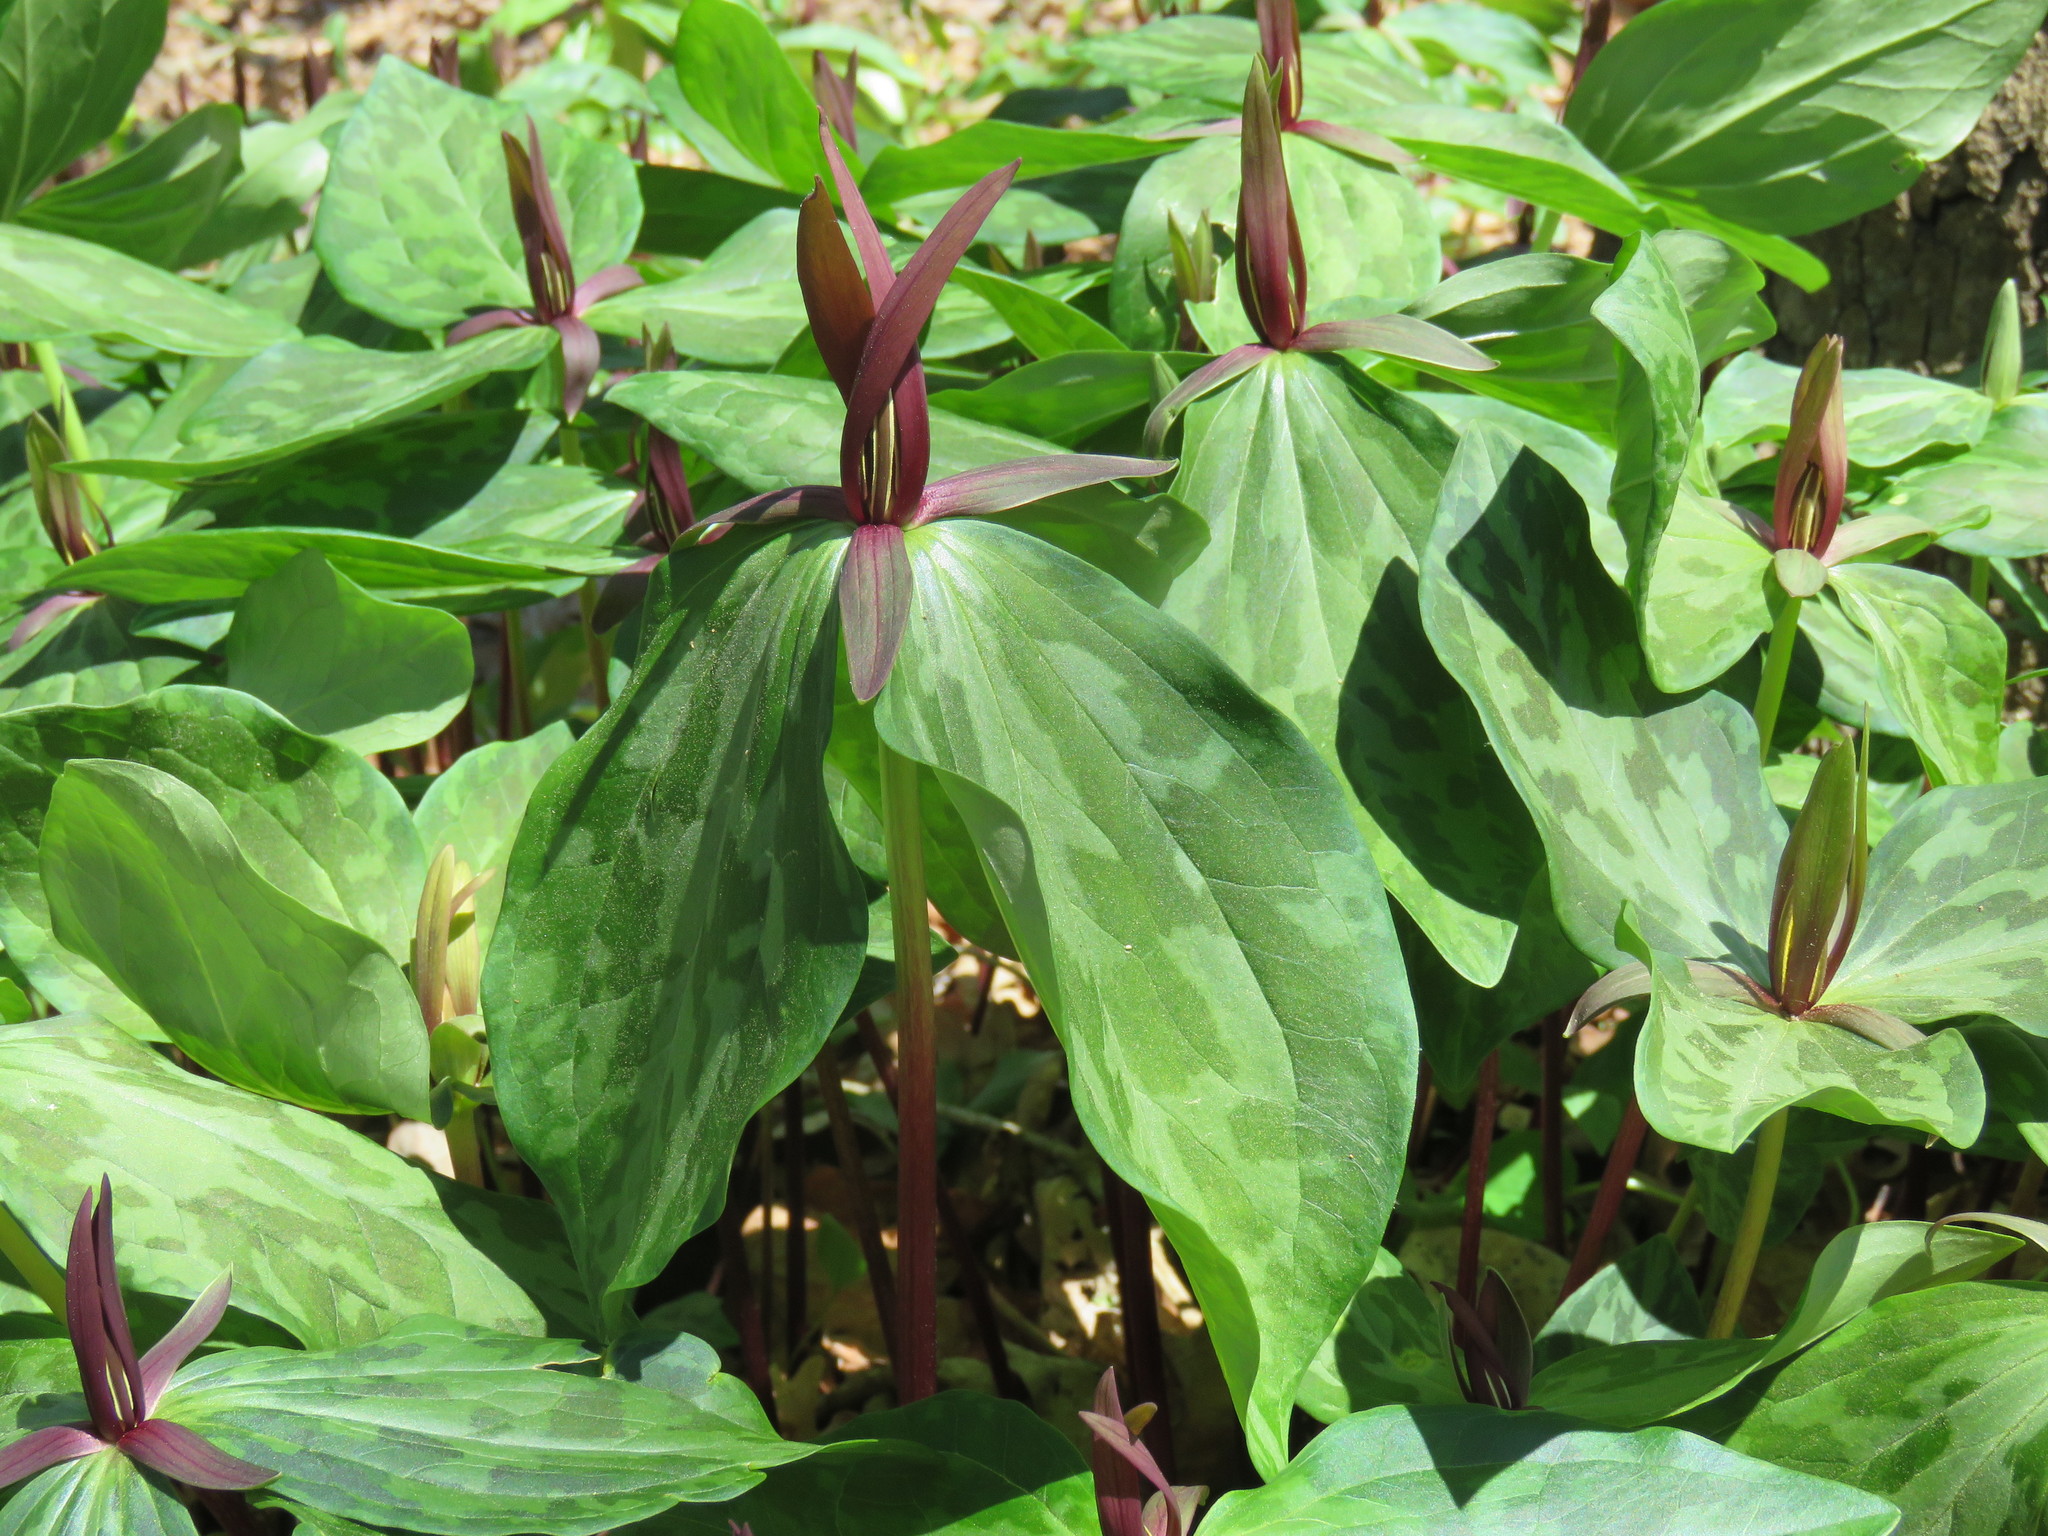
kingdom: Plantae
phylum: Tracheophyta
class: Liliopsida
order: Liliales
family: Melanthiaceae
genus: Trillium
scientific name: Trillium gracile
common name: Graceful trillium
